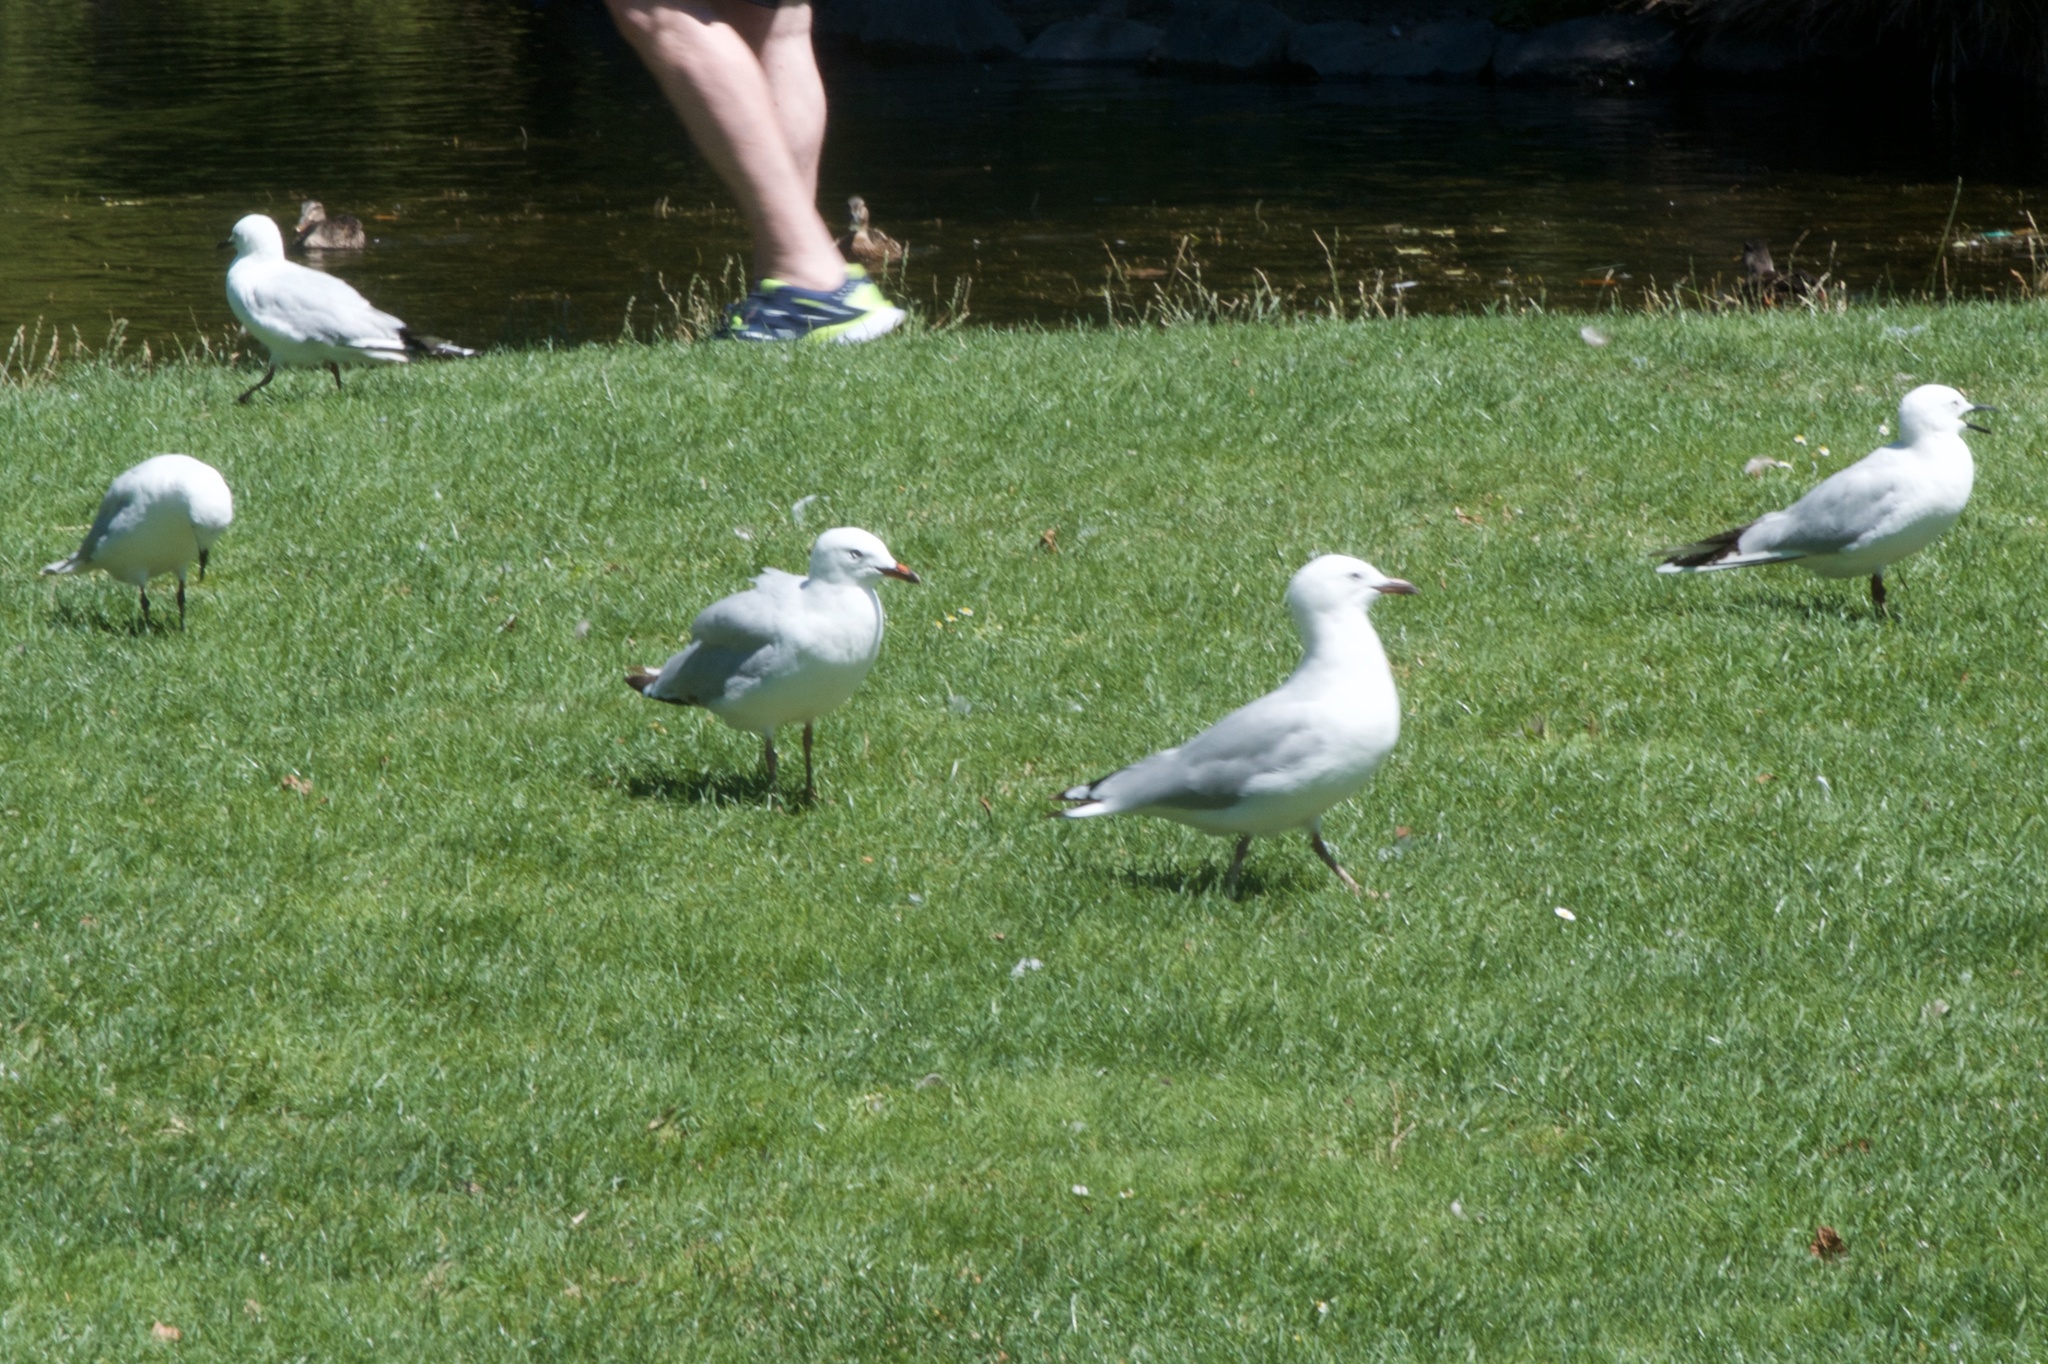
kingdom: Animalia
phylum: Chordata
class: Aves
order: Charadriiformes
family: Laridae
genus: Chroicocephalus
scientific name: Chroicocephalus novaehollandiae
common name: Silver gull
